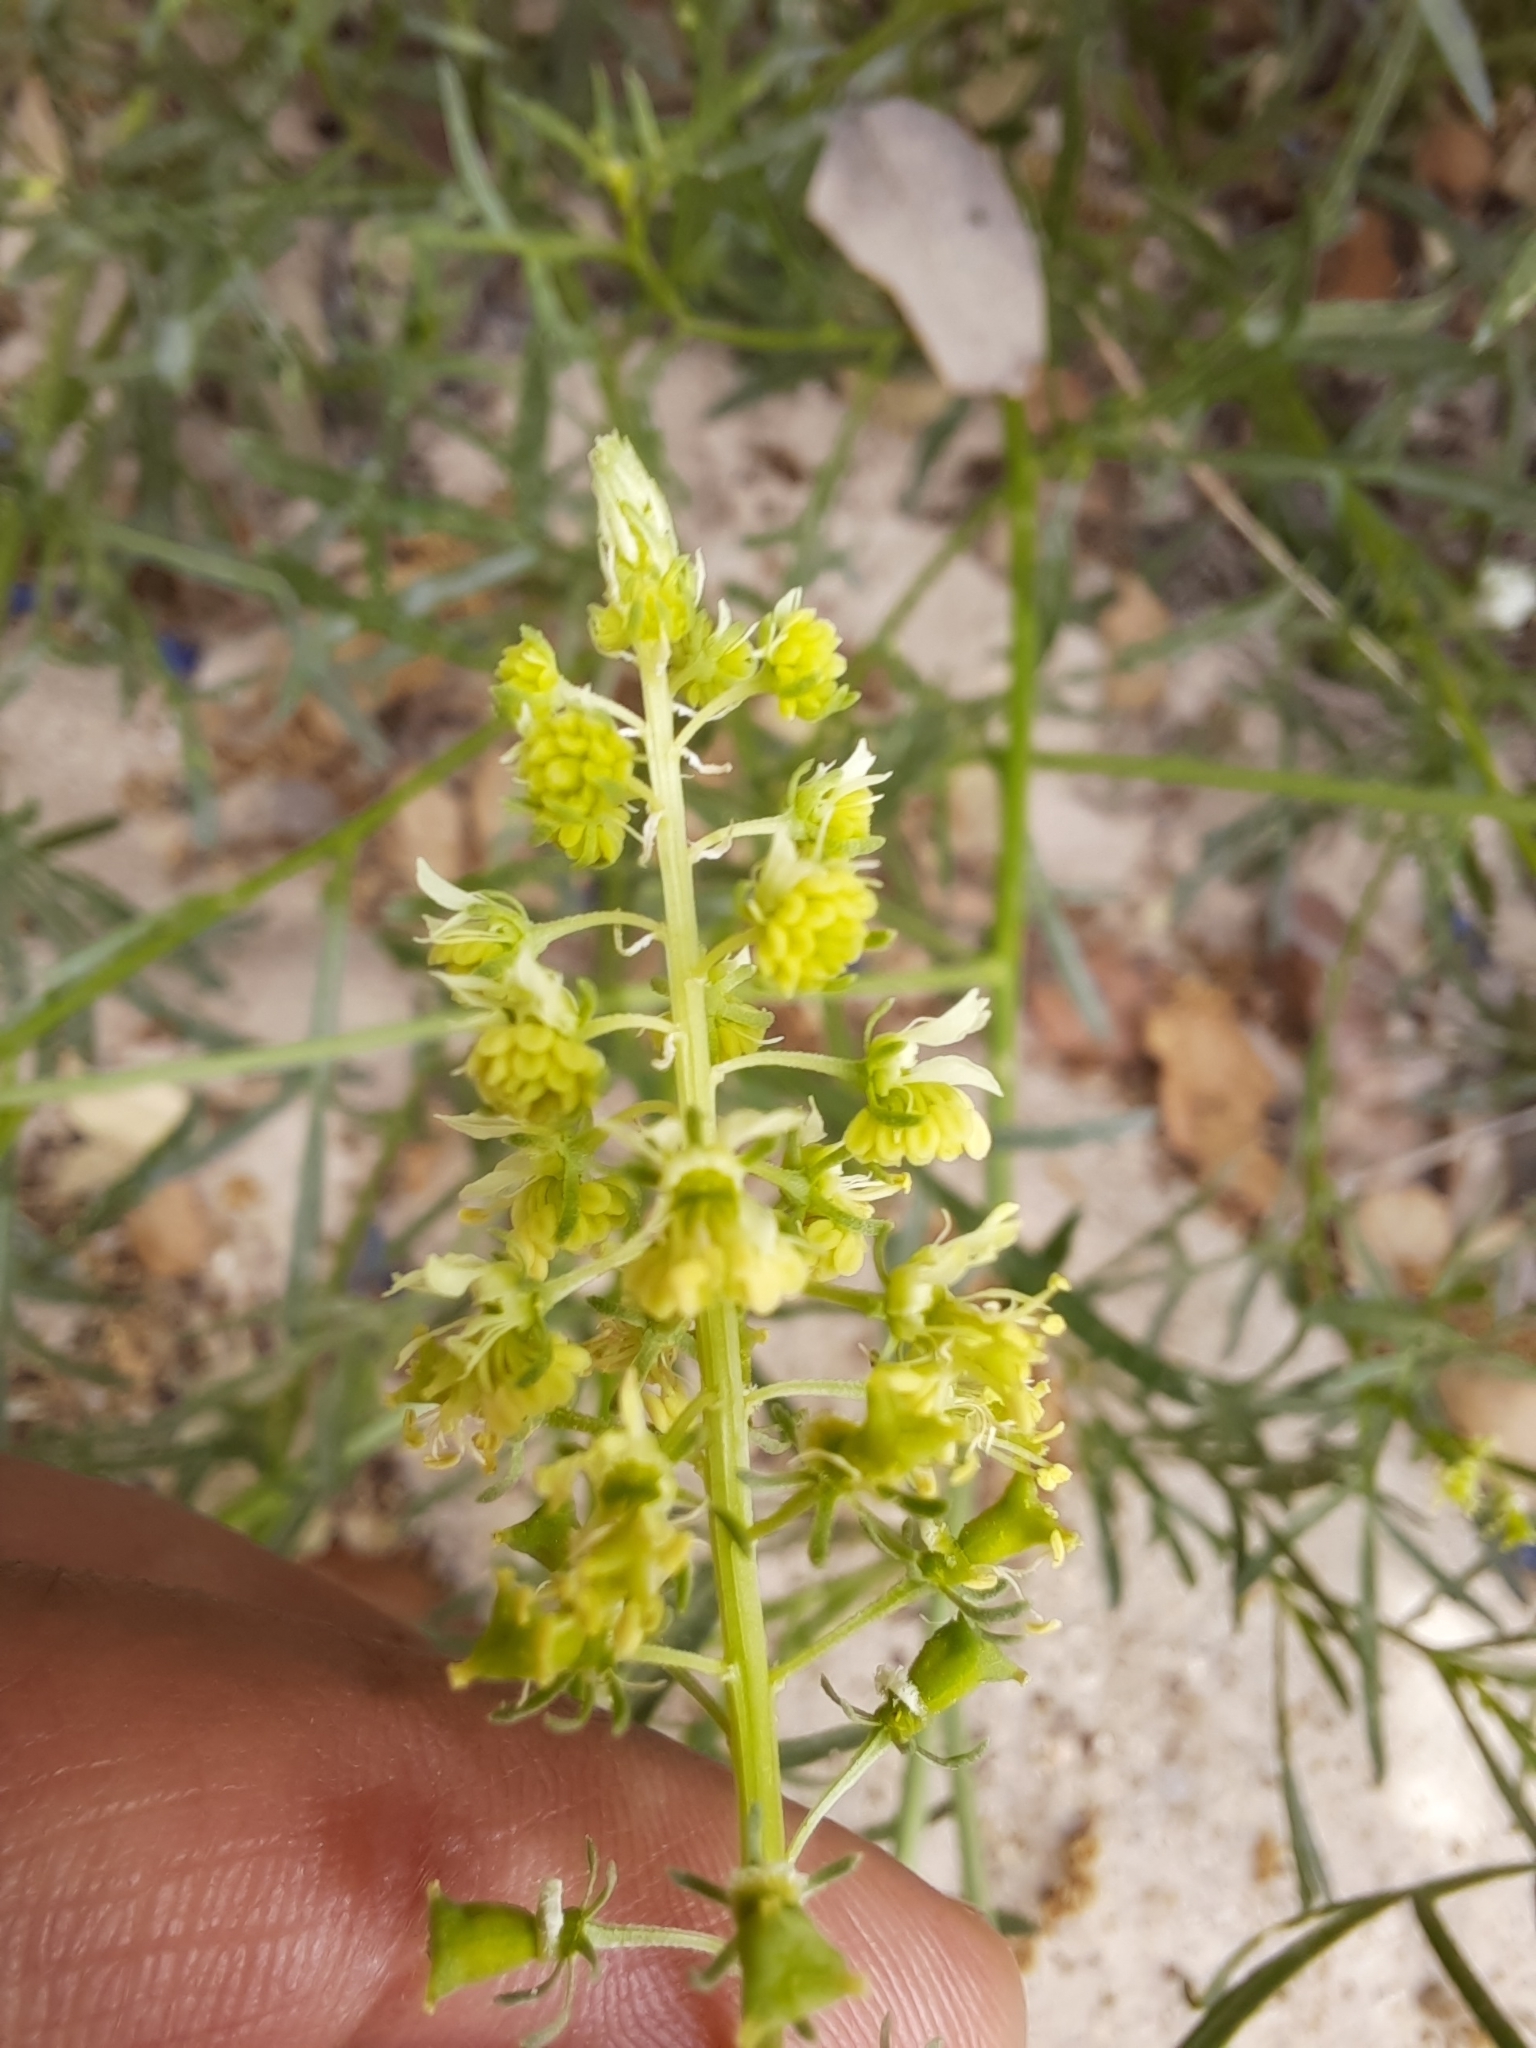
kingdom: Plantae
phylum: Tracheophyta
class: Magnoliopsida
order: Brassicales
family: Resedaceae
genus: Reseda
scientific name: Reseda stricta
